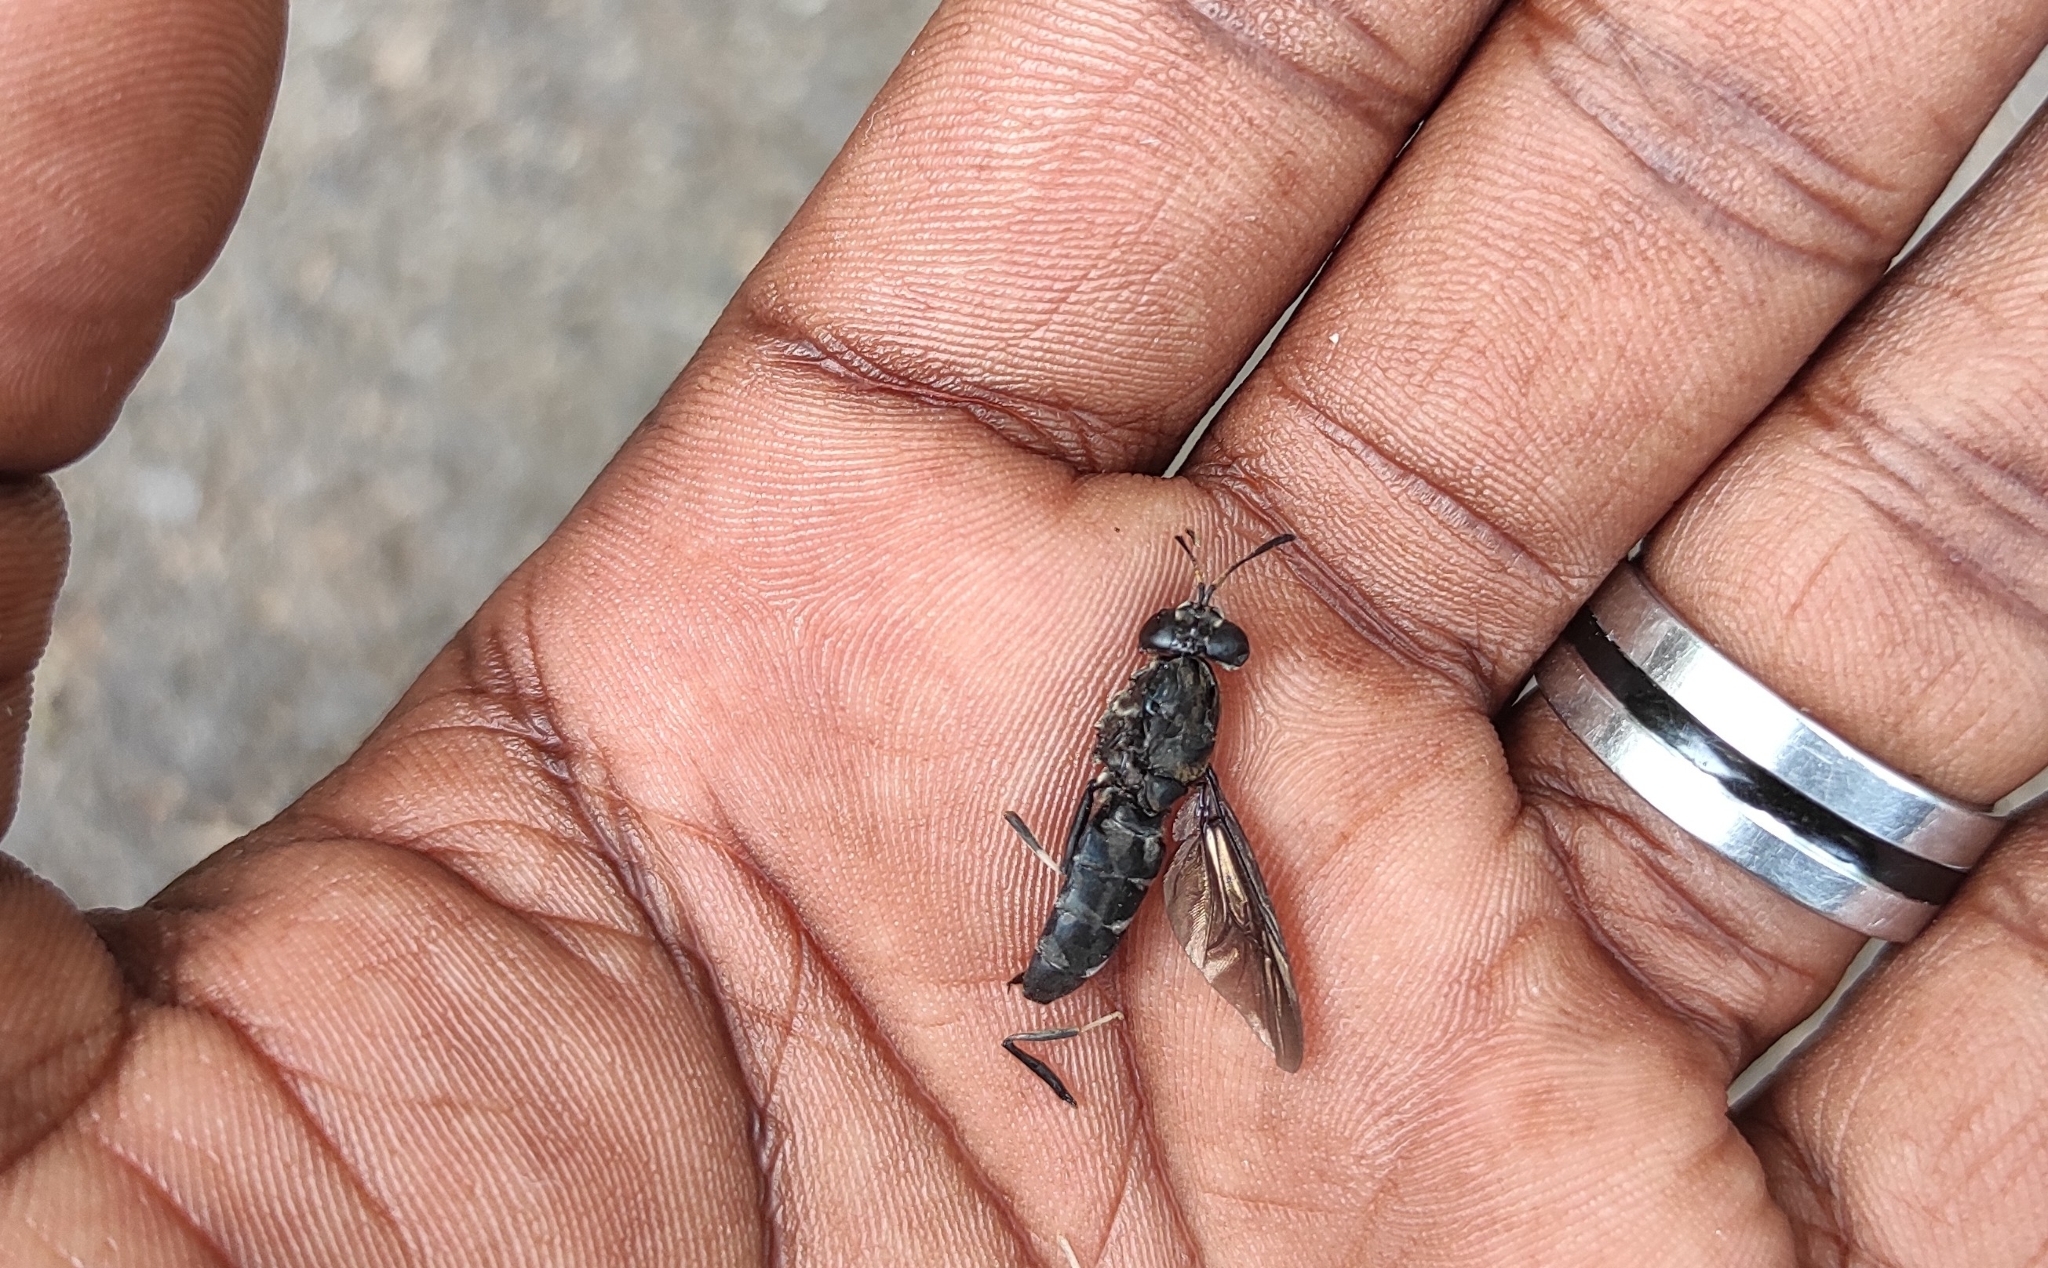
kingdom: Animalia
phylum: Arthropoda
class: Insecta
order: Diptera
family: Stratiomyidae
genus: Hermetia
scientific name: Hermetia illucens
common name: Black soldier fly
